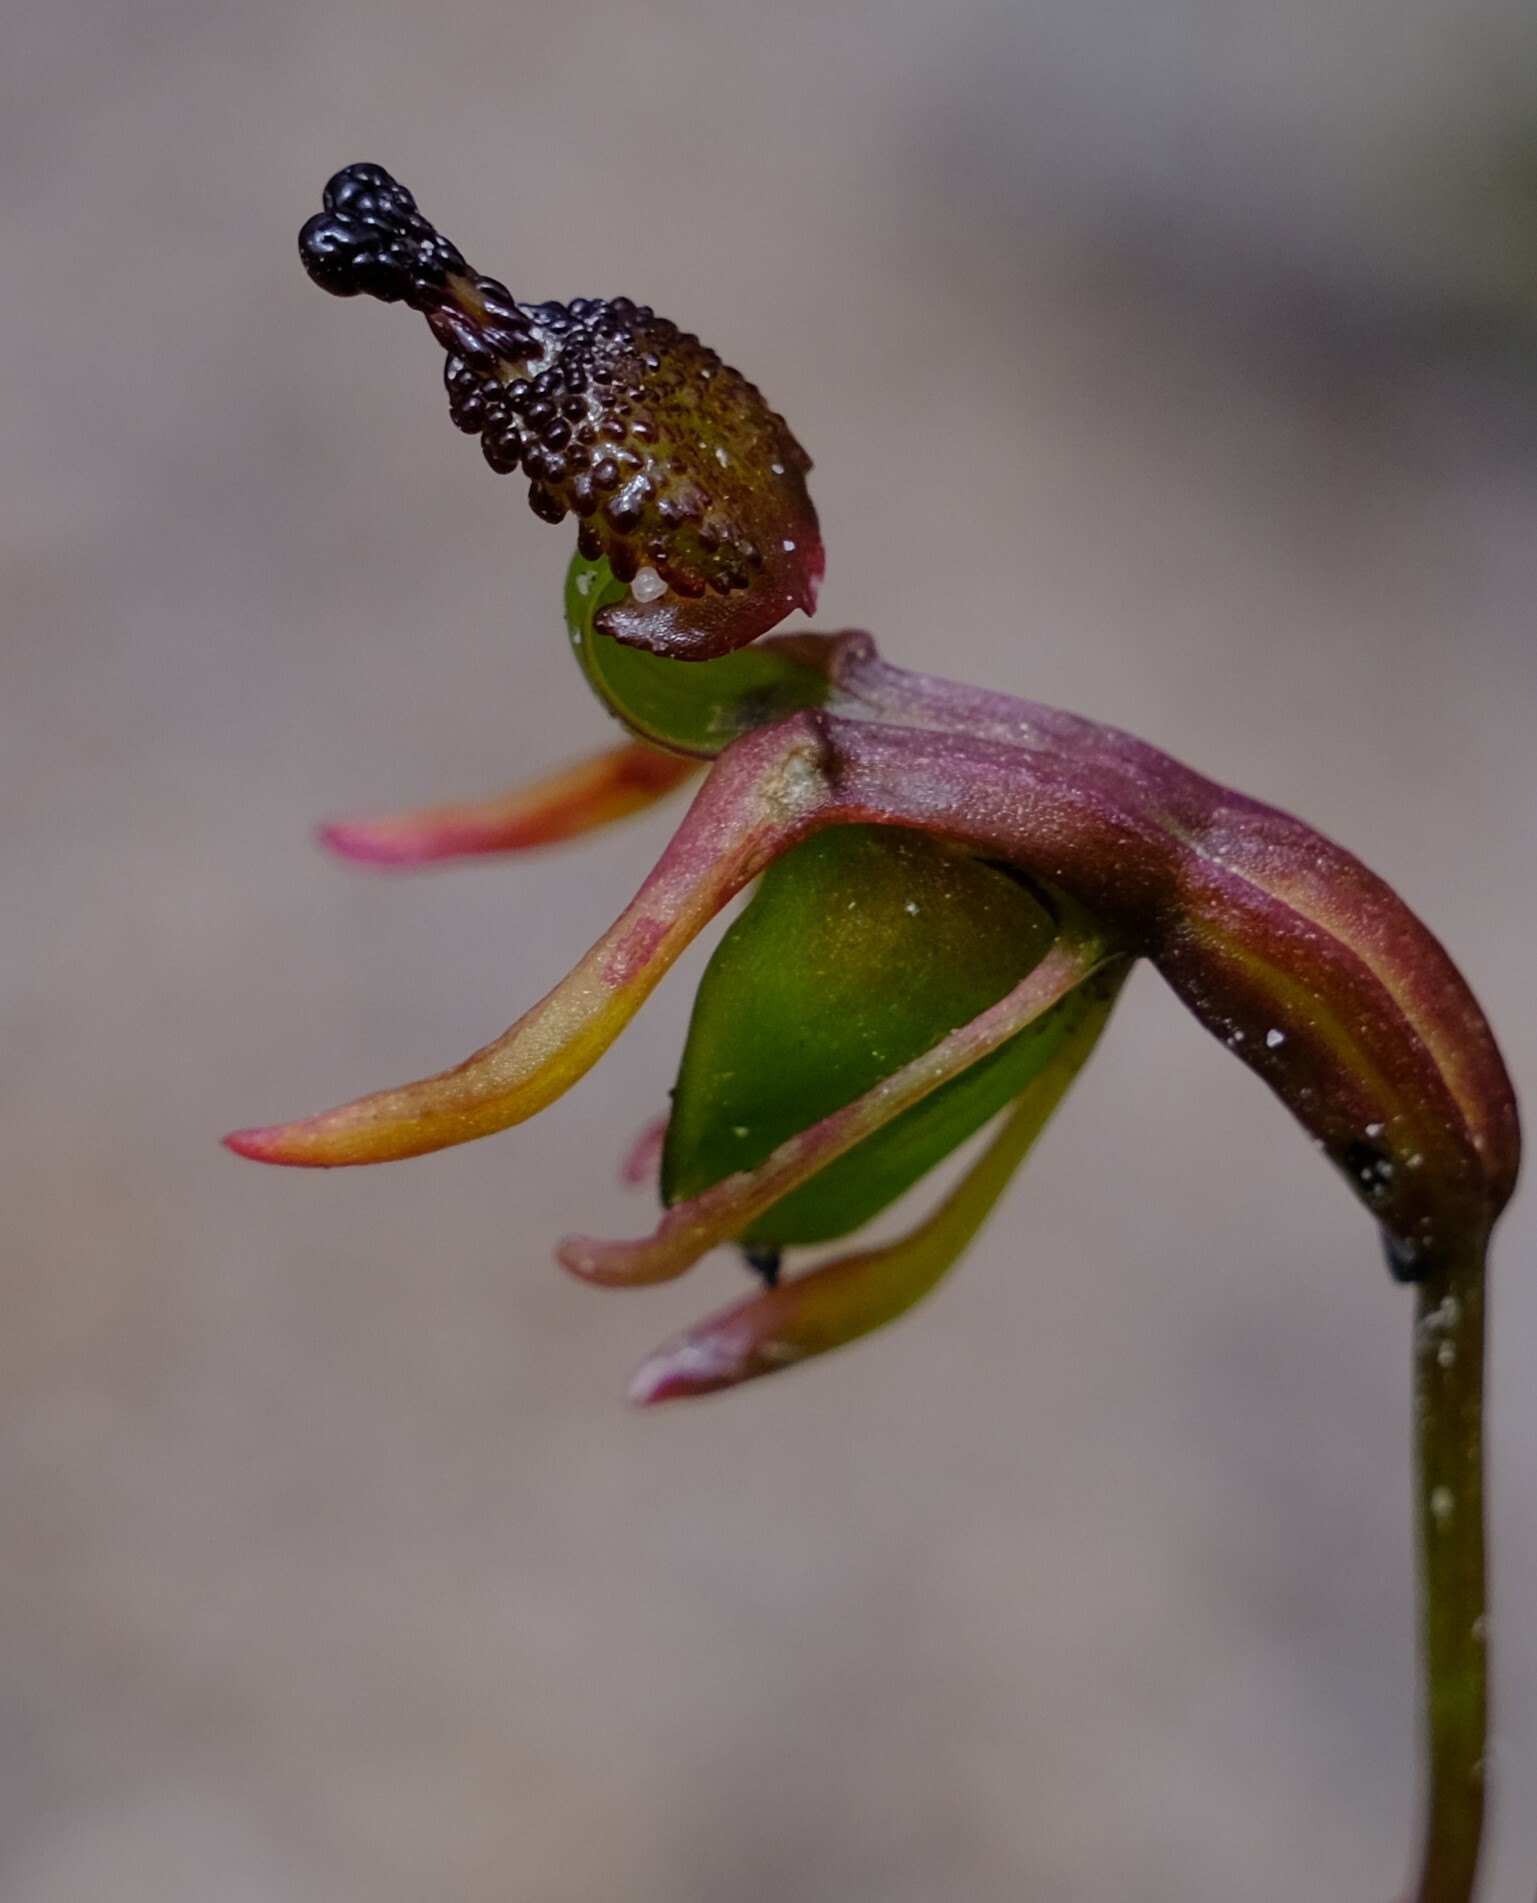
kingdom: Plantae
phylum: Tracheophyta
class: Liliopsida
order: Asparagales
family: Orchidaceae
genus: Caleana
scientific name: Caleana minor
